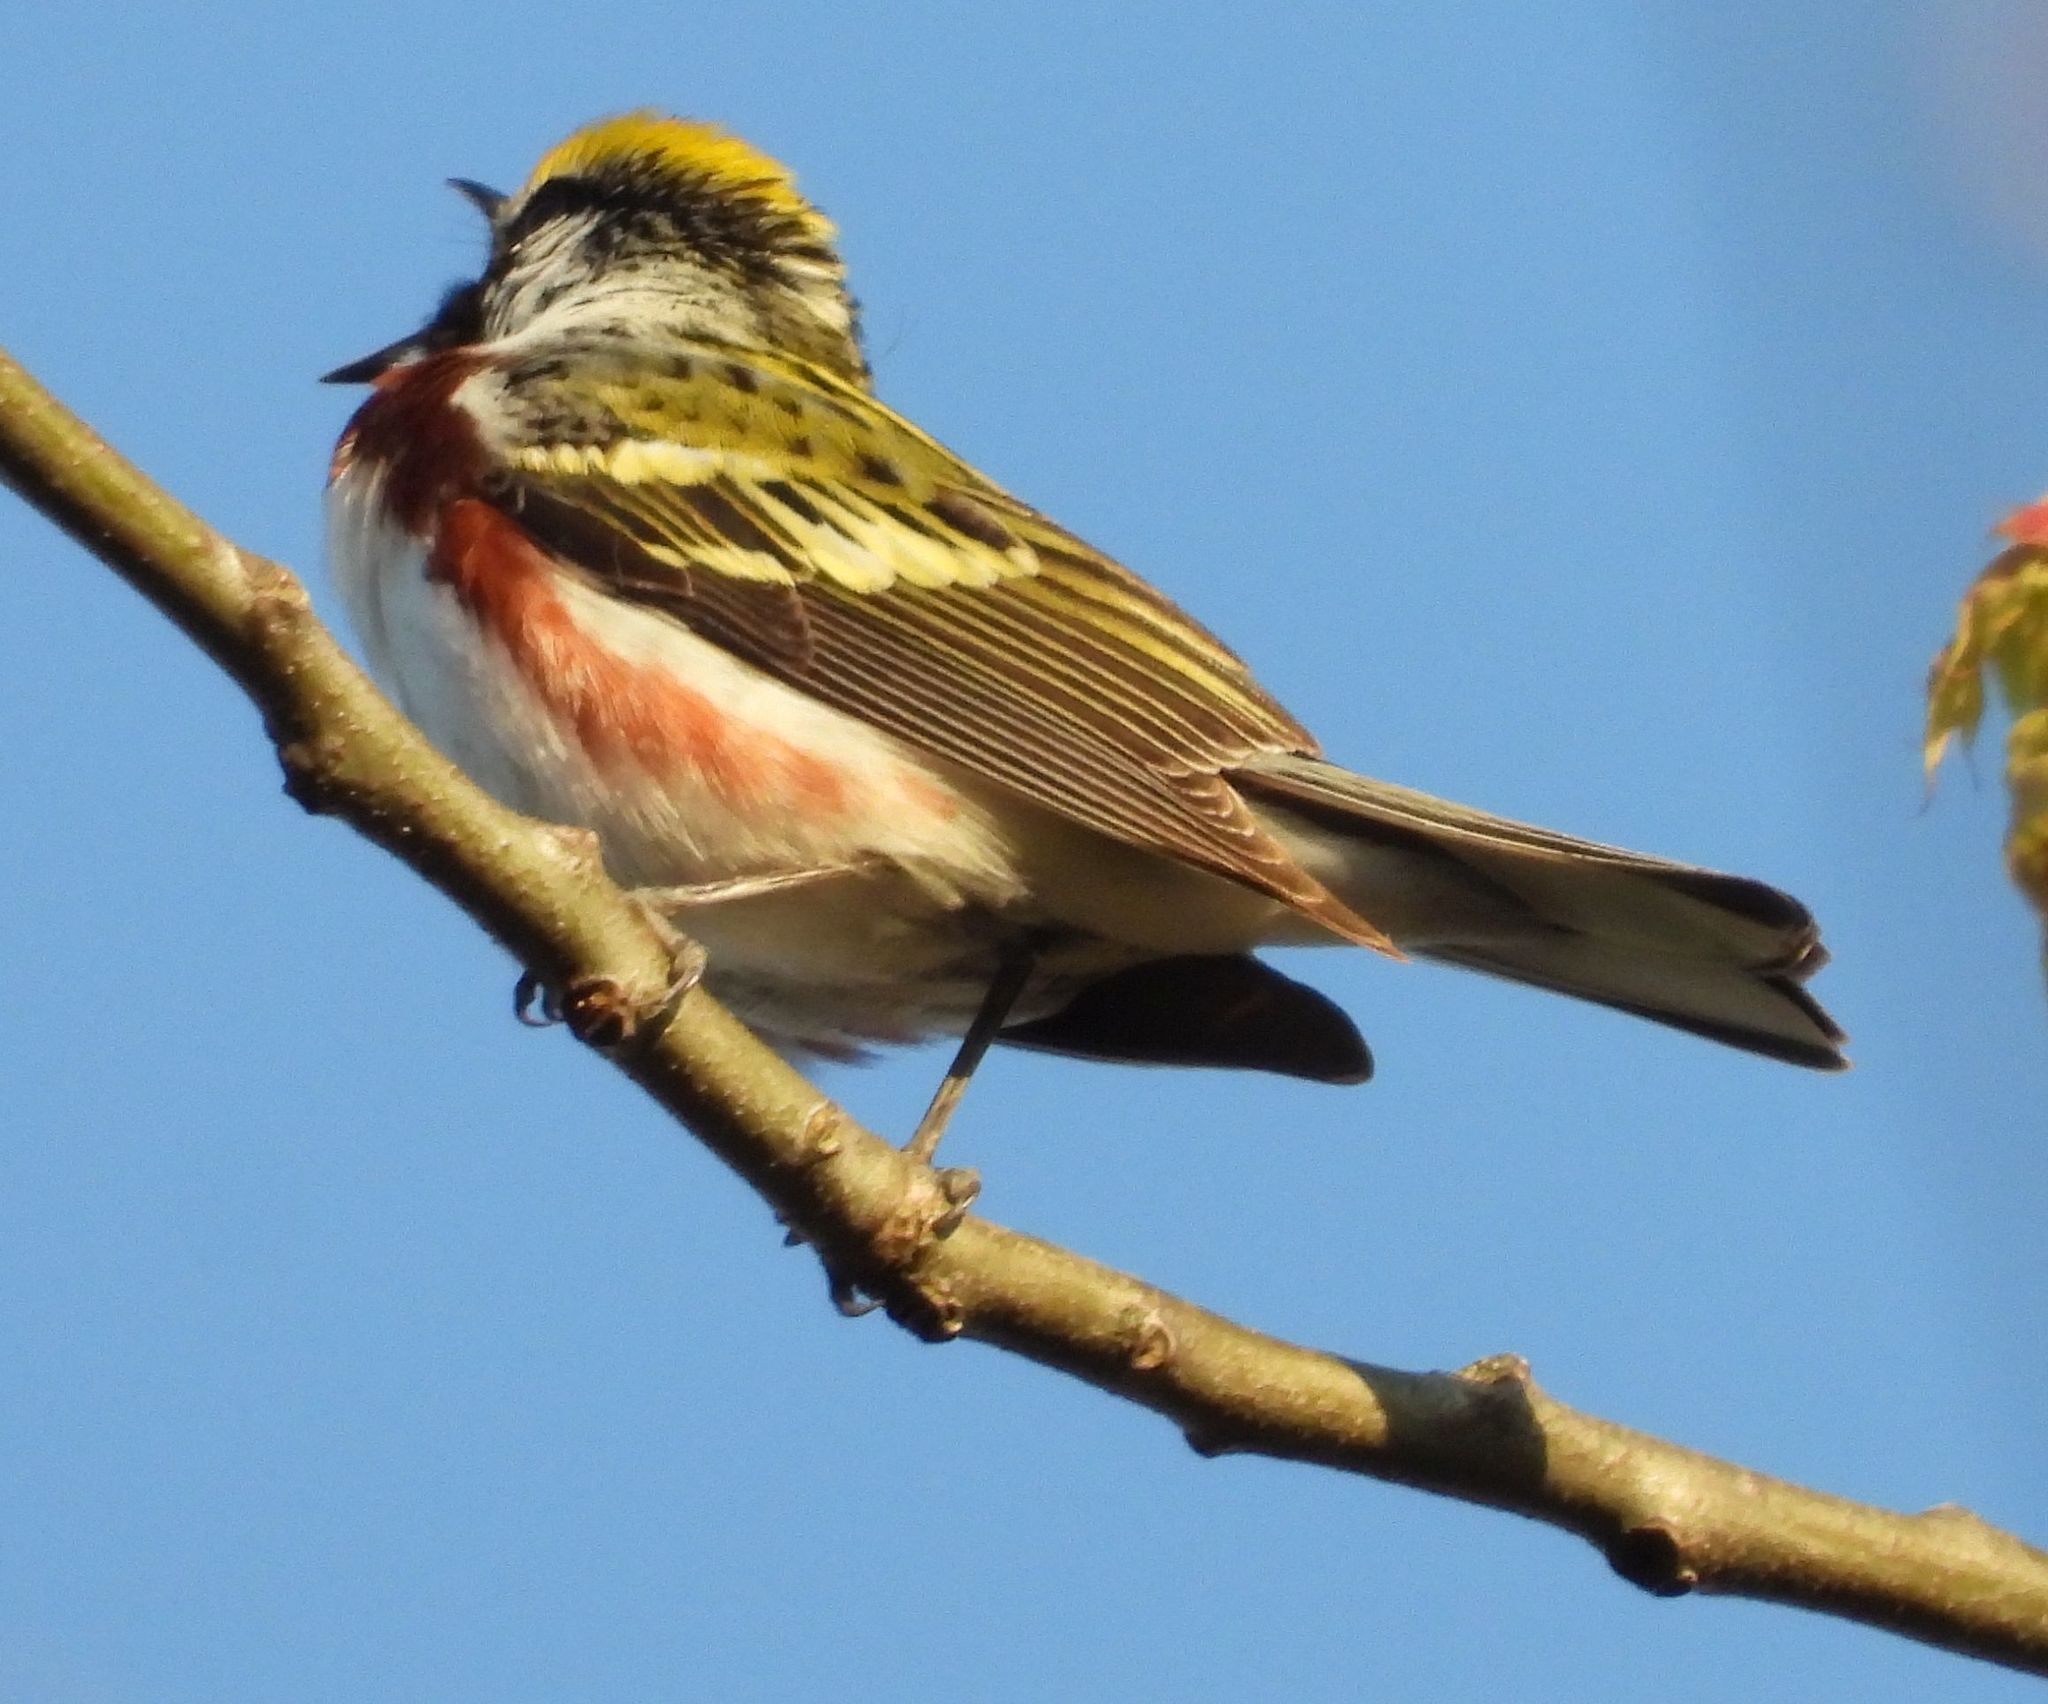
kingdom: Animalia
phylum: Chordata
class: Aves
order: Passeriformes
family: Parulidae
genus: Setophaga
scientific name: Setophaga pensylvanica
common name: Chestnut-sided warbler
